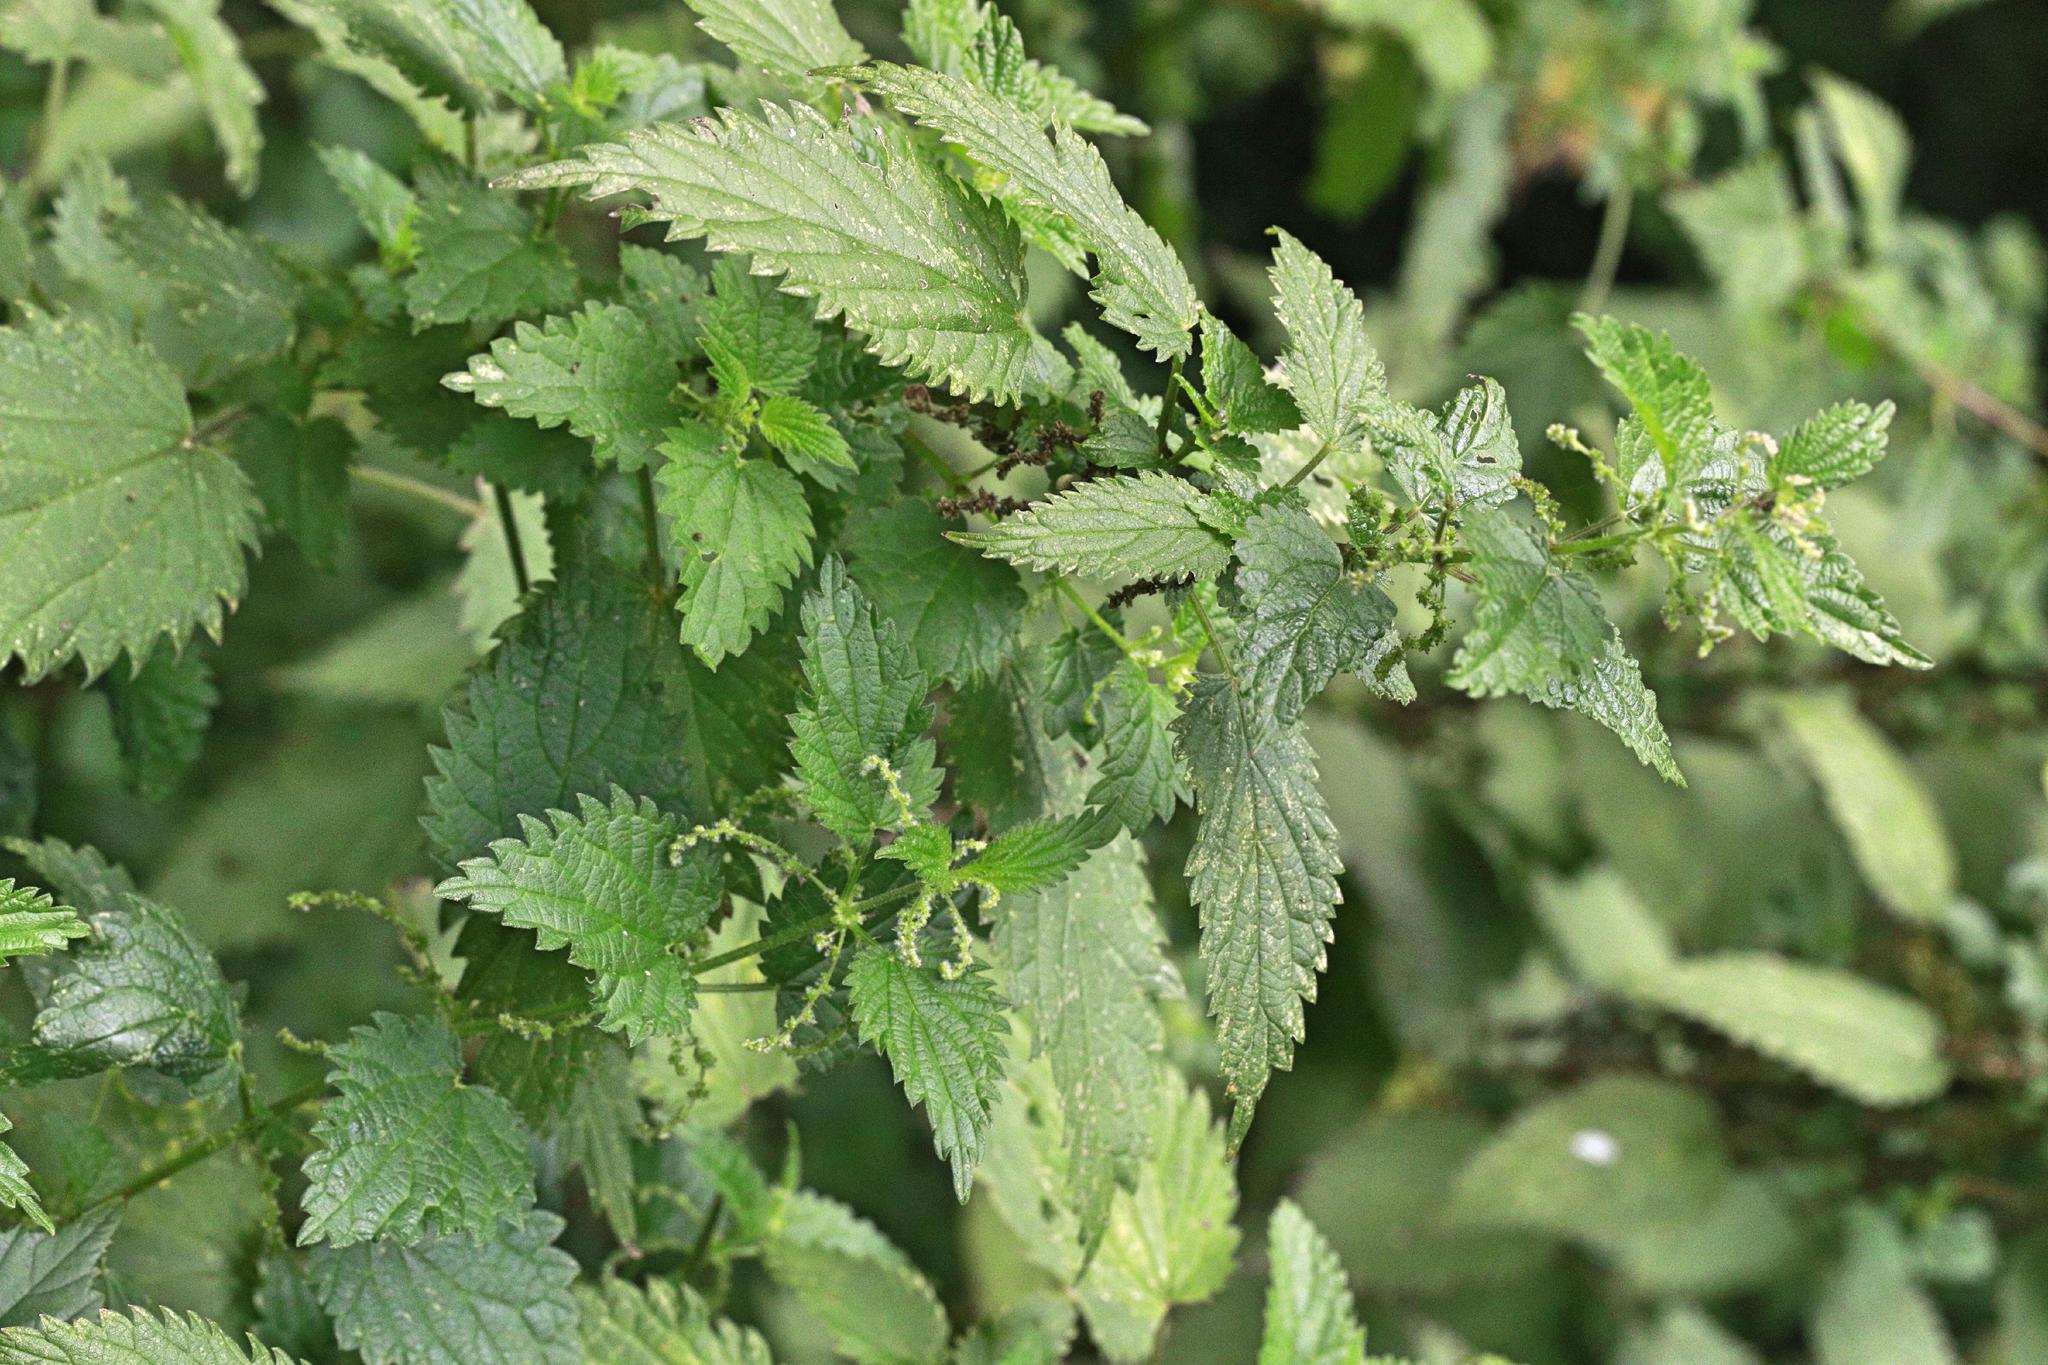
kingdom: Plantae
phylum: Tracheophyta
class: Magnoliopsida
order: Rosales
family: Urticaceae
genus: Urtica
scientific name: Urtica dioica
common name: Common nettle
